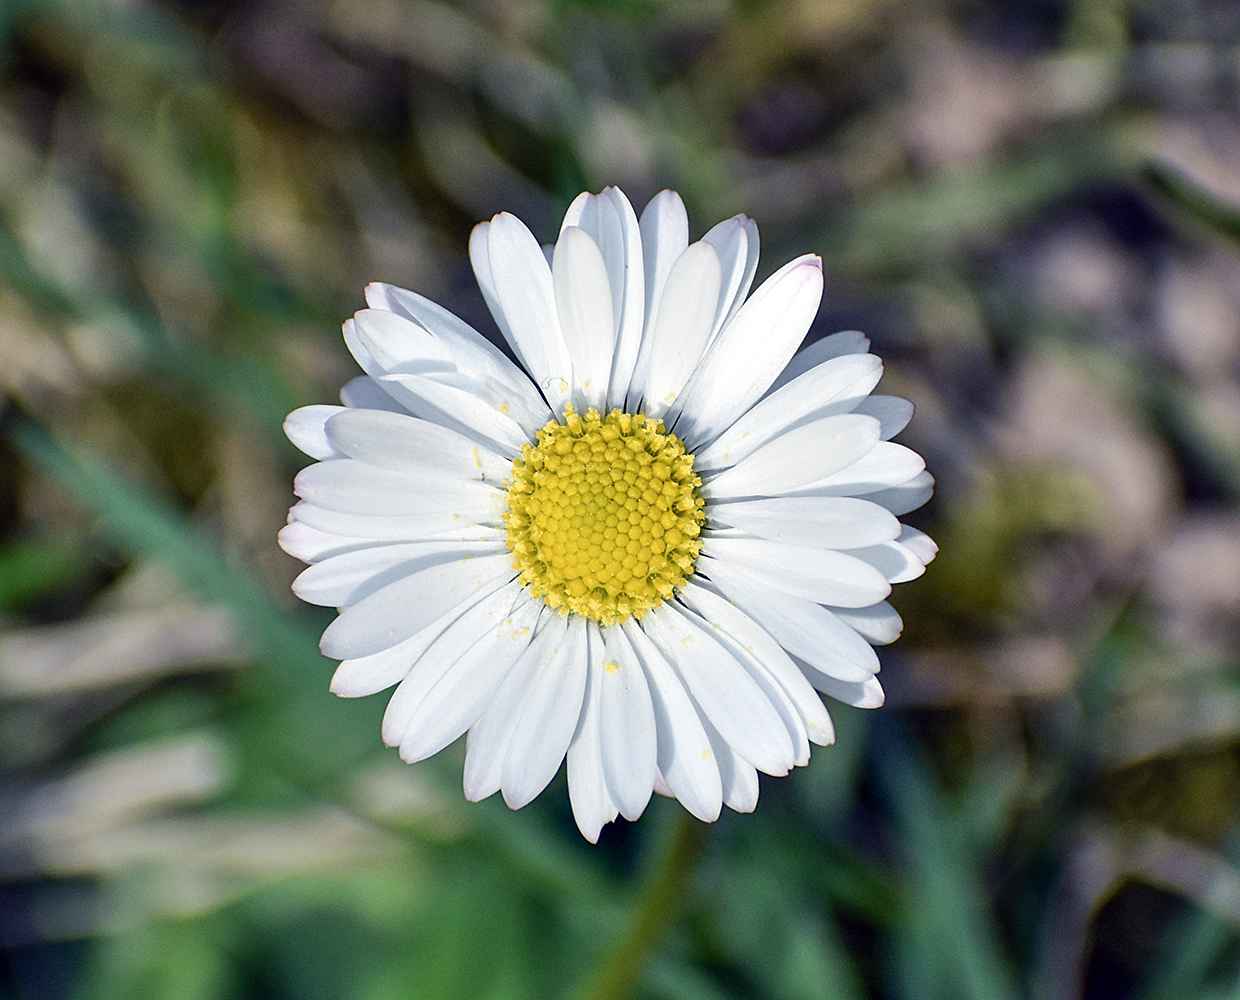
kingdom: Plantae
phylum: Tracheophyta
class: Magnoliopsida
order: Asterales
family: Asteraceae
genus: Bellis
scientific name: Bellis perennis
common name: Lawndaisy
